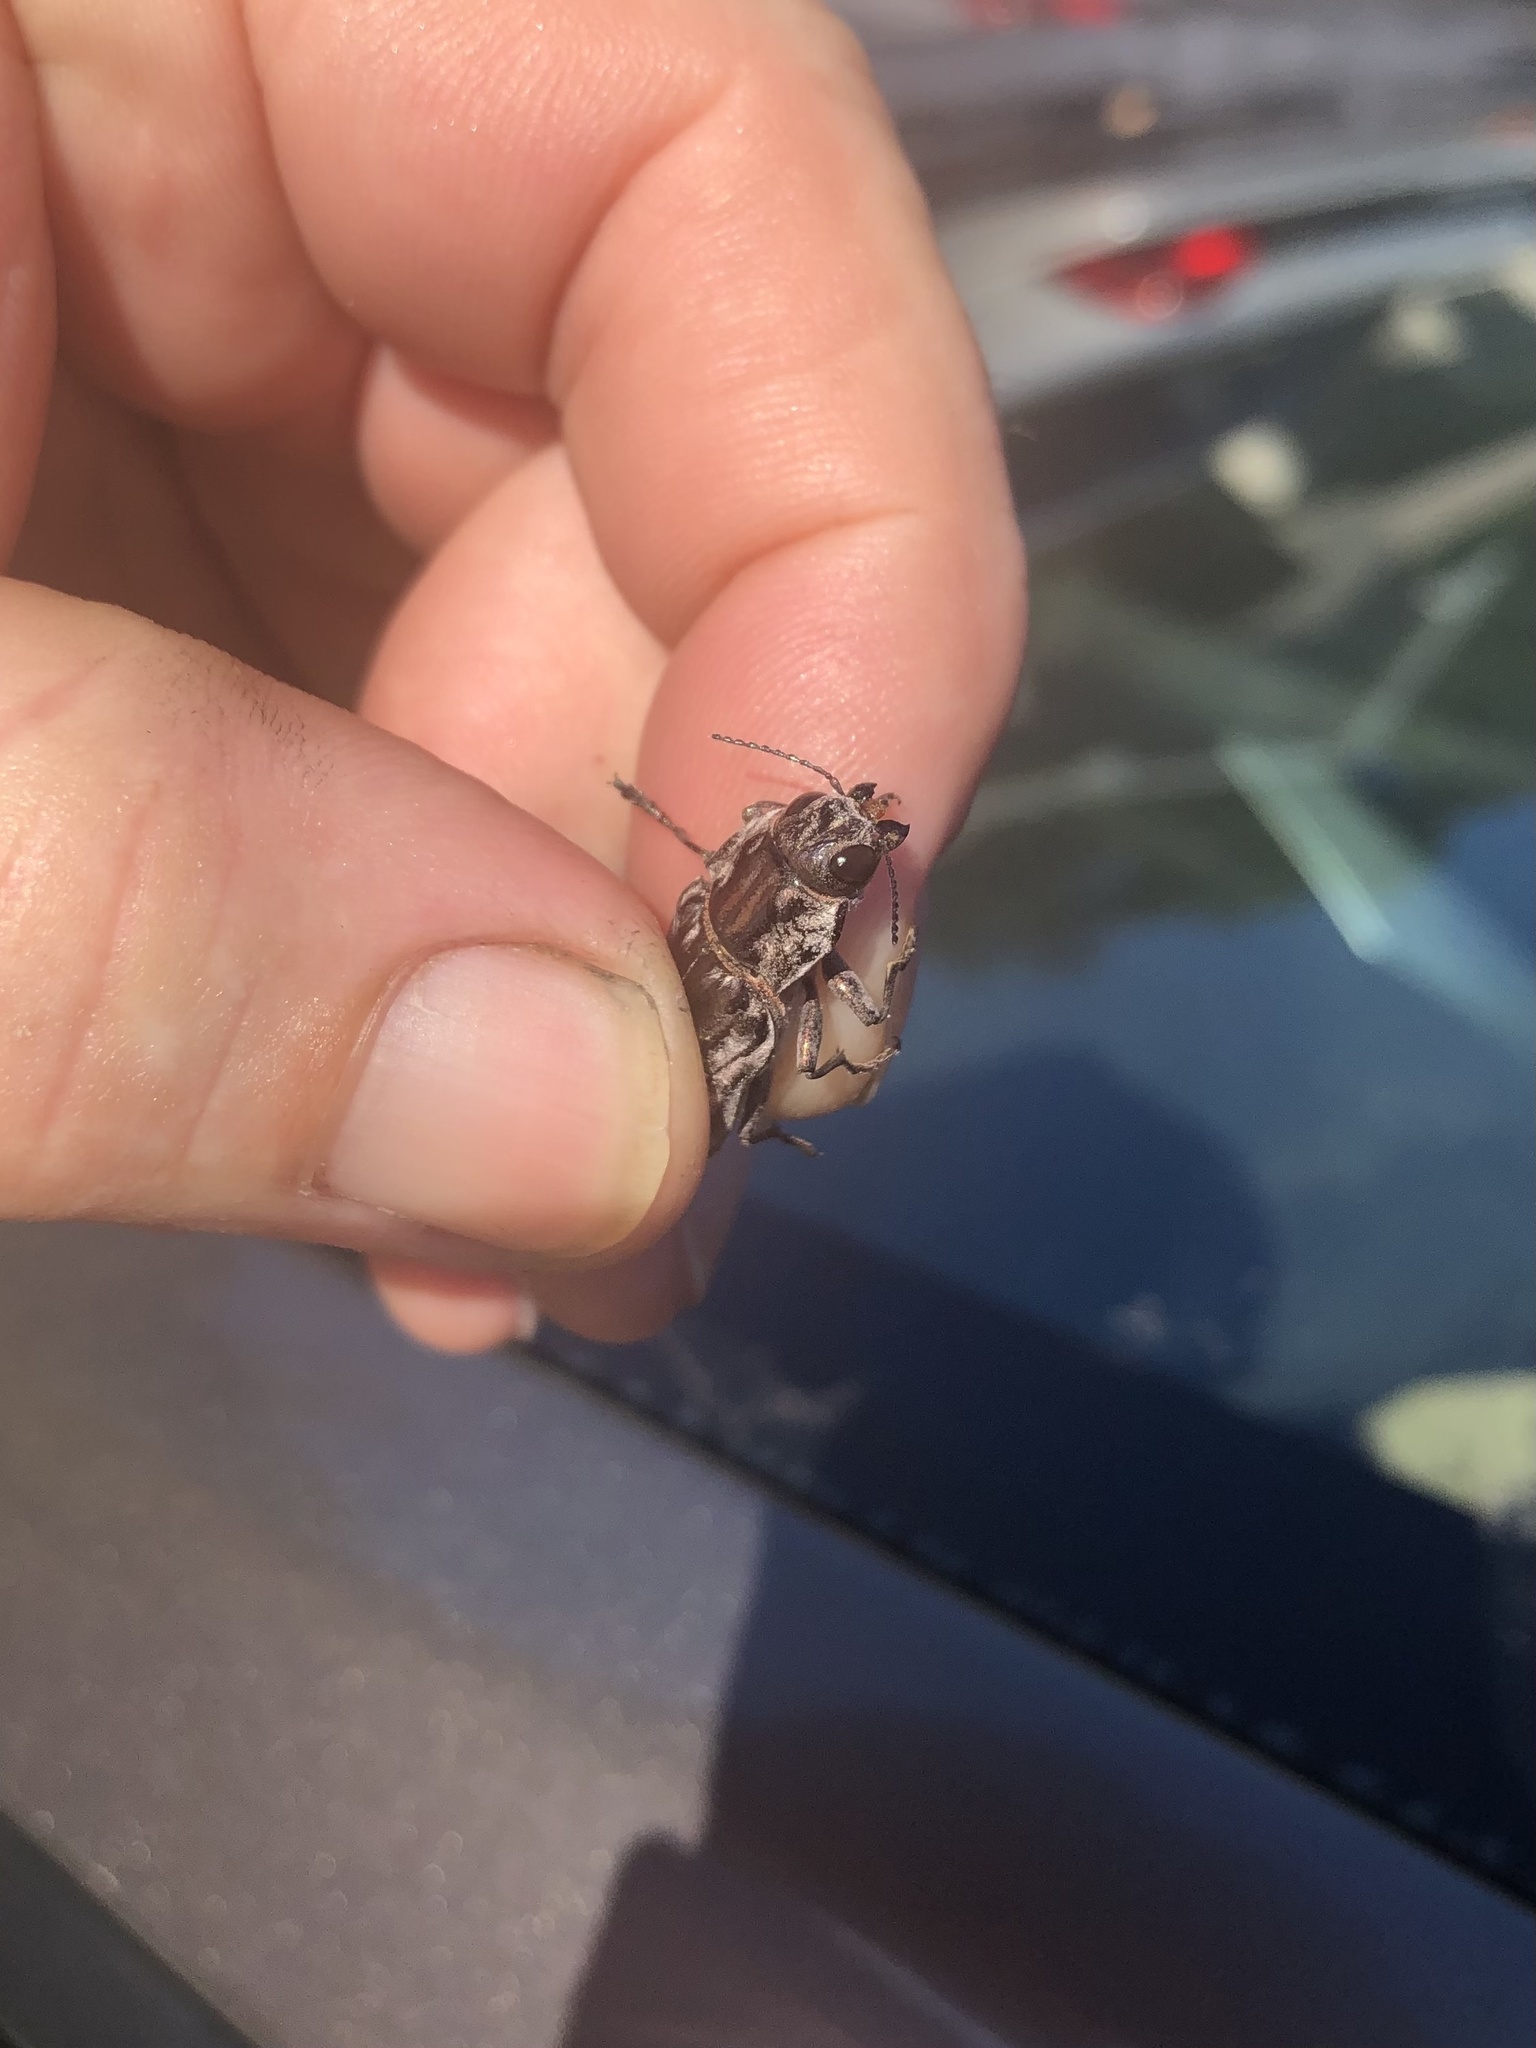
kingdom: Animalia
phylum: Arthropoda
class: Insecta
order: Coleoptera
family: Buprestidae
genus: Chalcophora
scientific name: Chalcophora virginiensis
